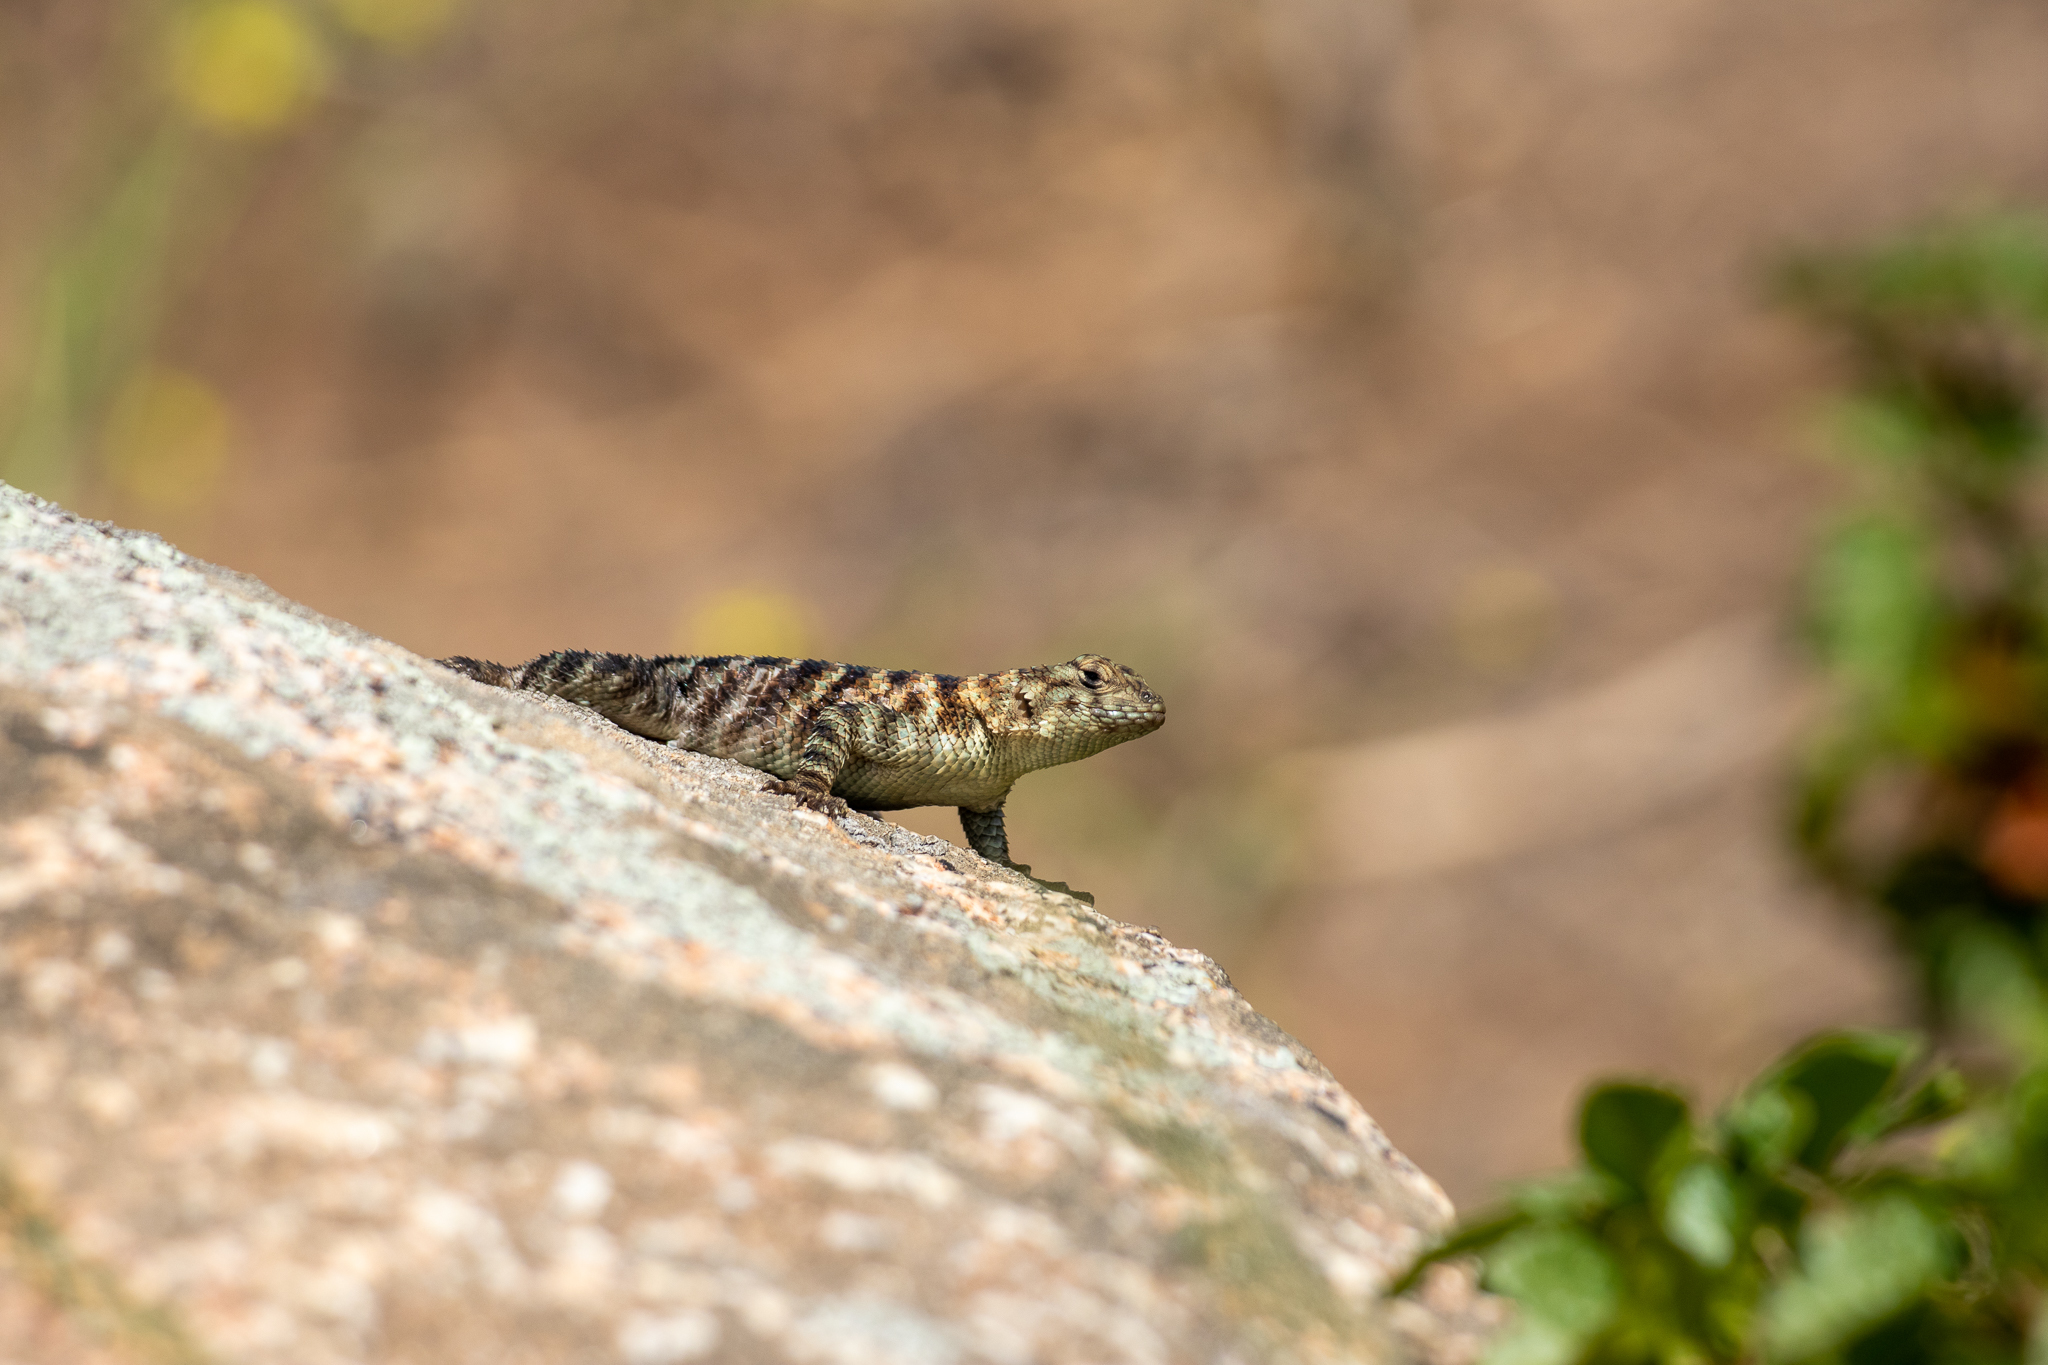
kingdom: Animalia
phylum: Chordata
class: Squamata
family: Phrynosomatidae
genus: Sceloporus
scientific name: Sceloporus orcutti
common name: Granite spiny lizard
